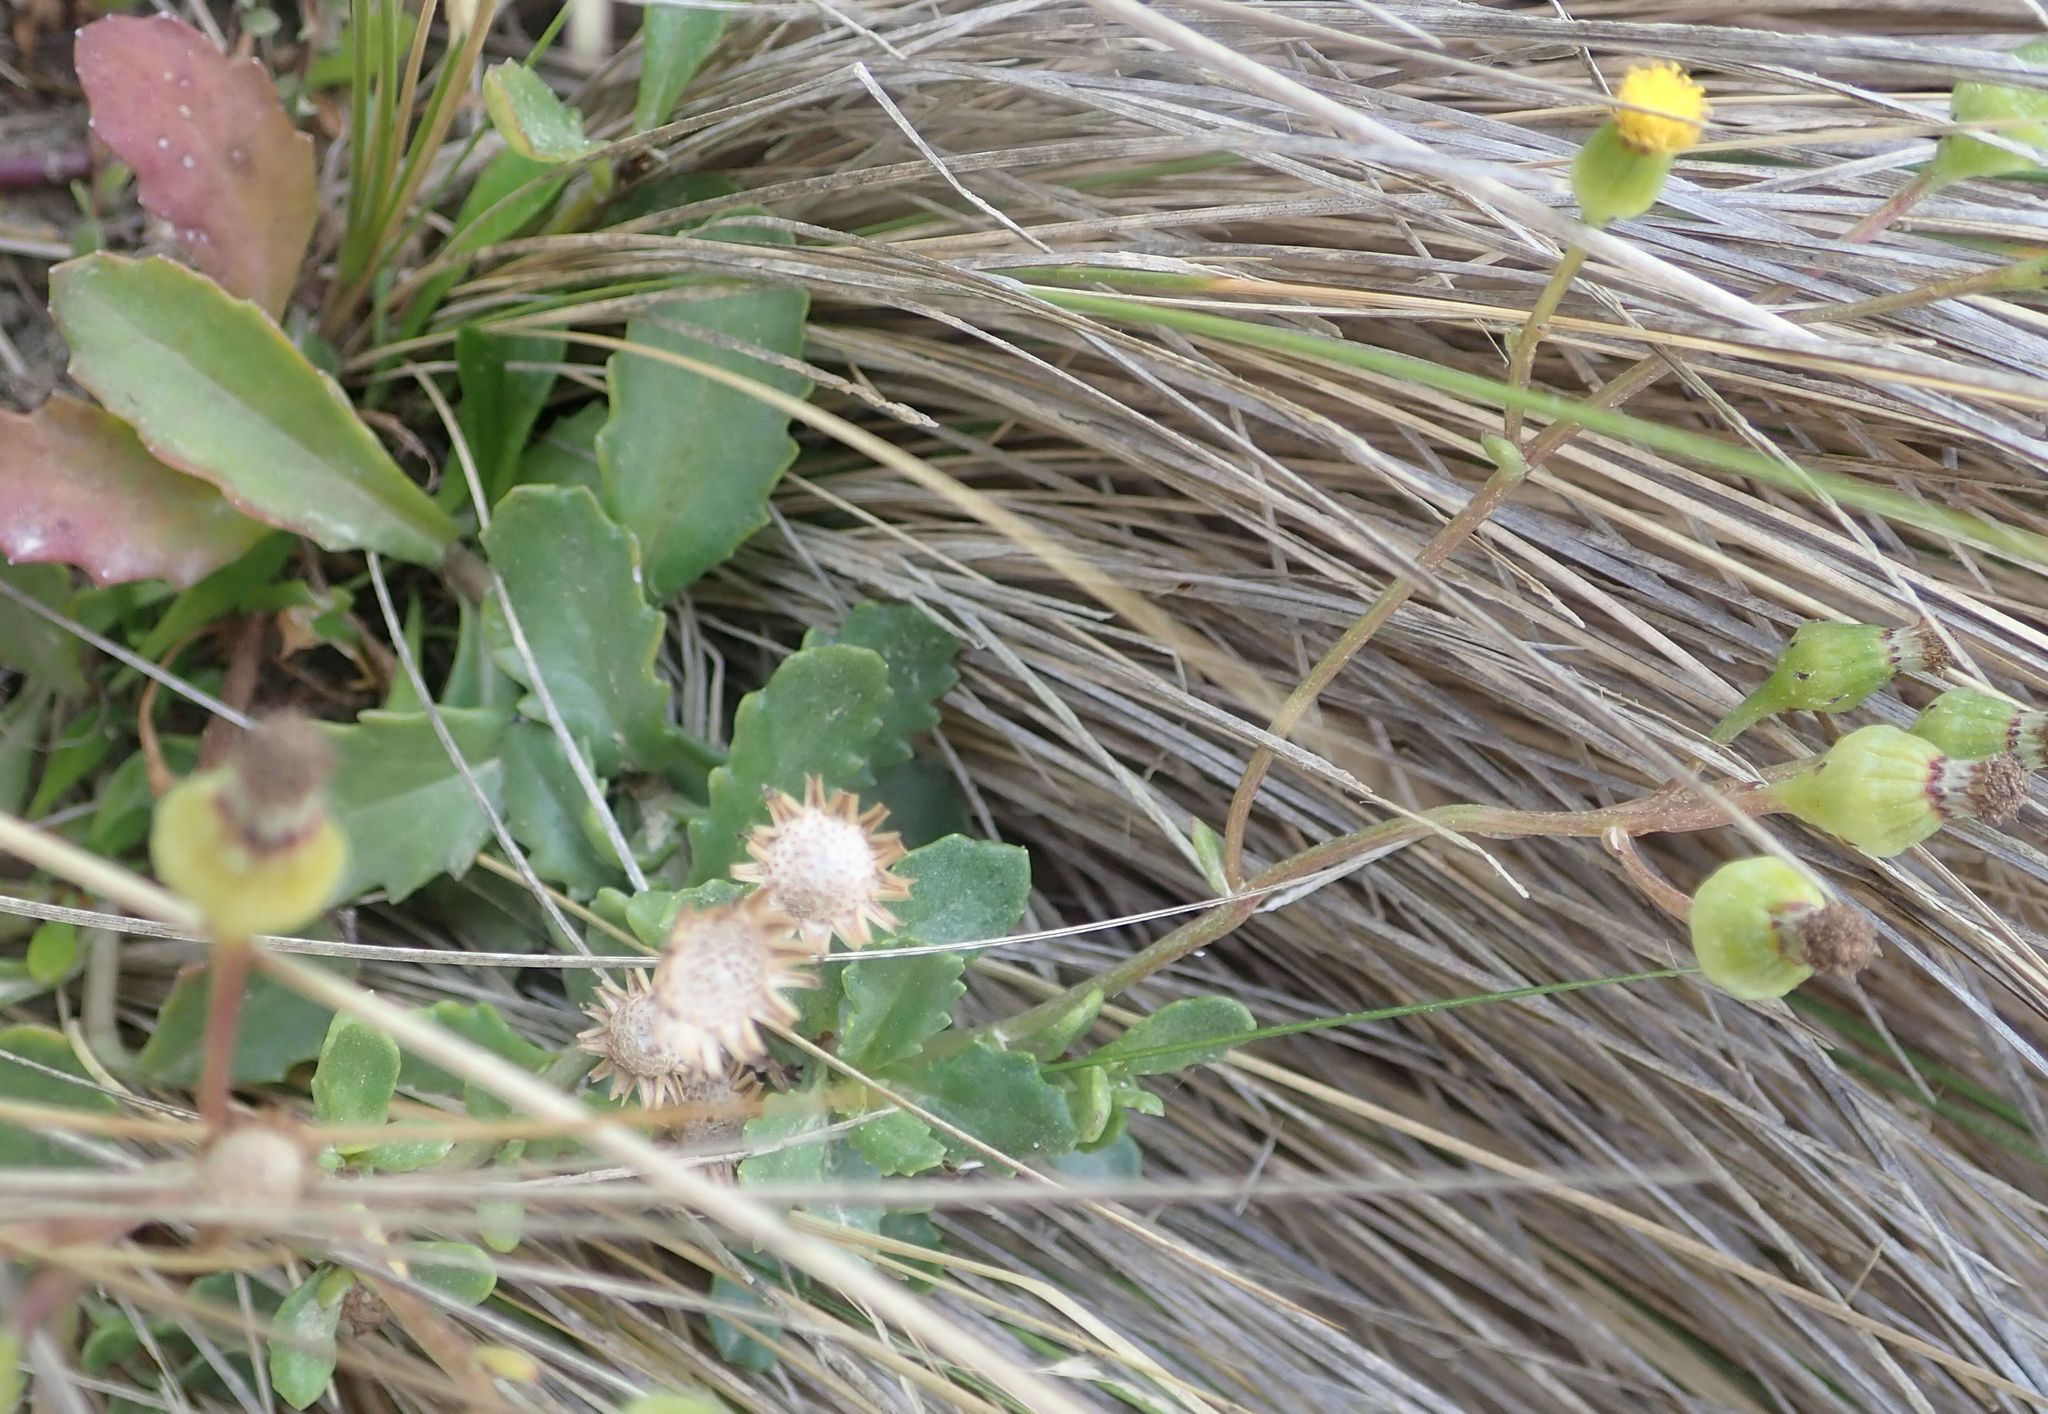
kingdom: Plantae
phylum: Tracheophyta
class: Magnoliopsida
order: Asterales
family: Asteraceae
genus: Senecio
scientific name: Senecio matatini
